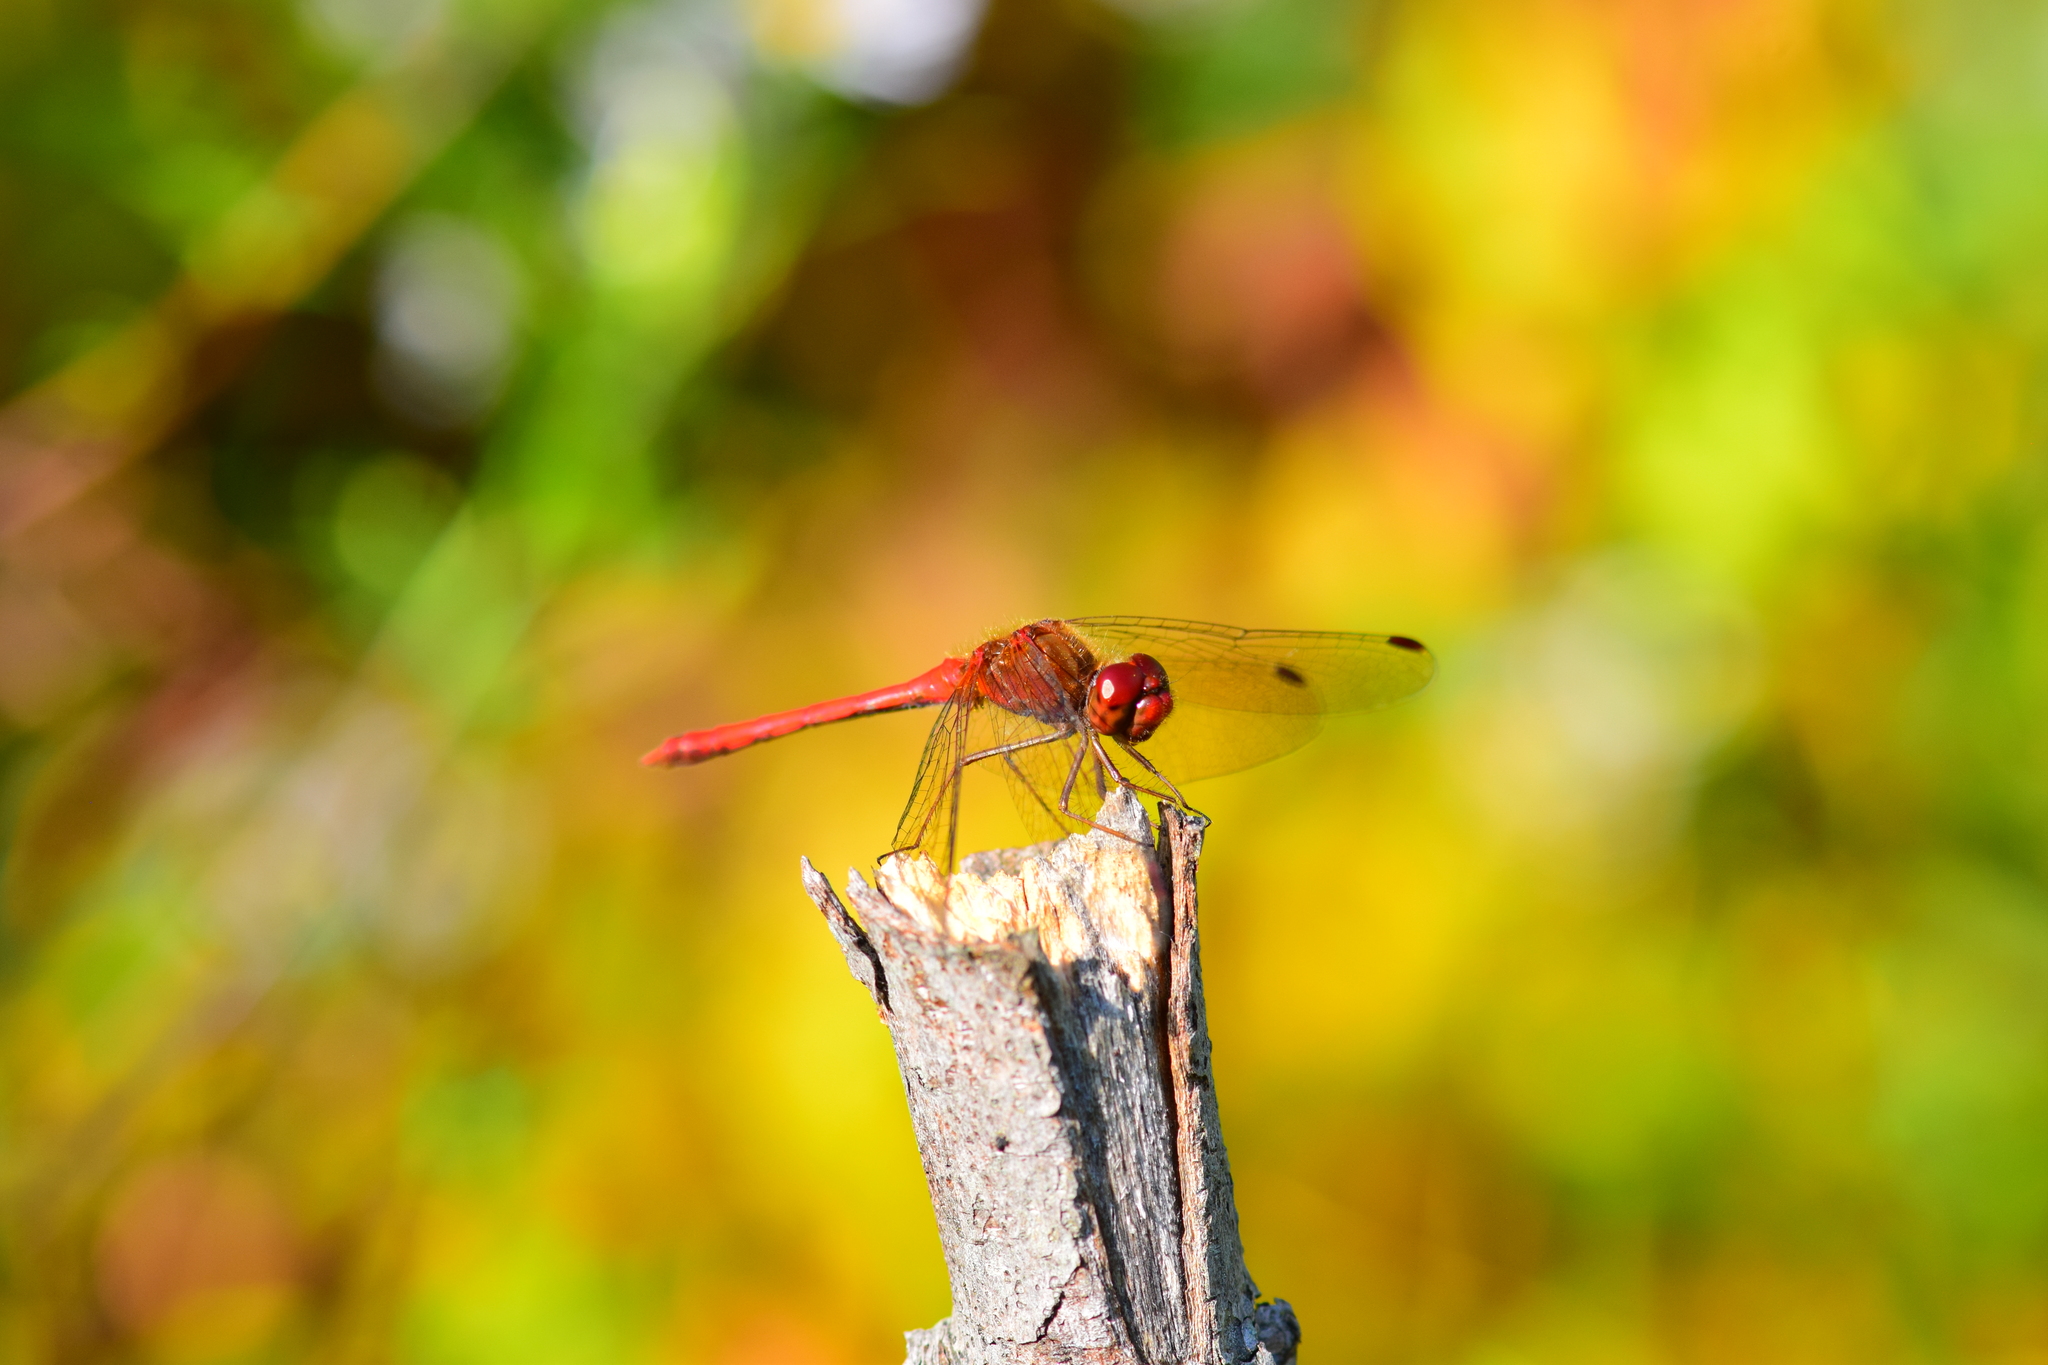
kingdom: Animalia
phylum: Arthropoda
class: Insecta
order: Odonata
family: Libellulidae
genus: Sympetrum
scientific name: Sympetrum vicinum
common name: Autumn meadowhawk
